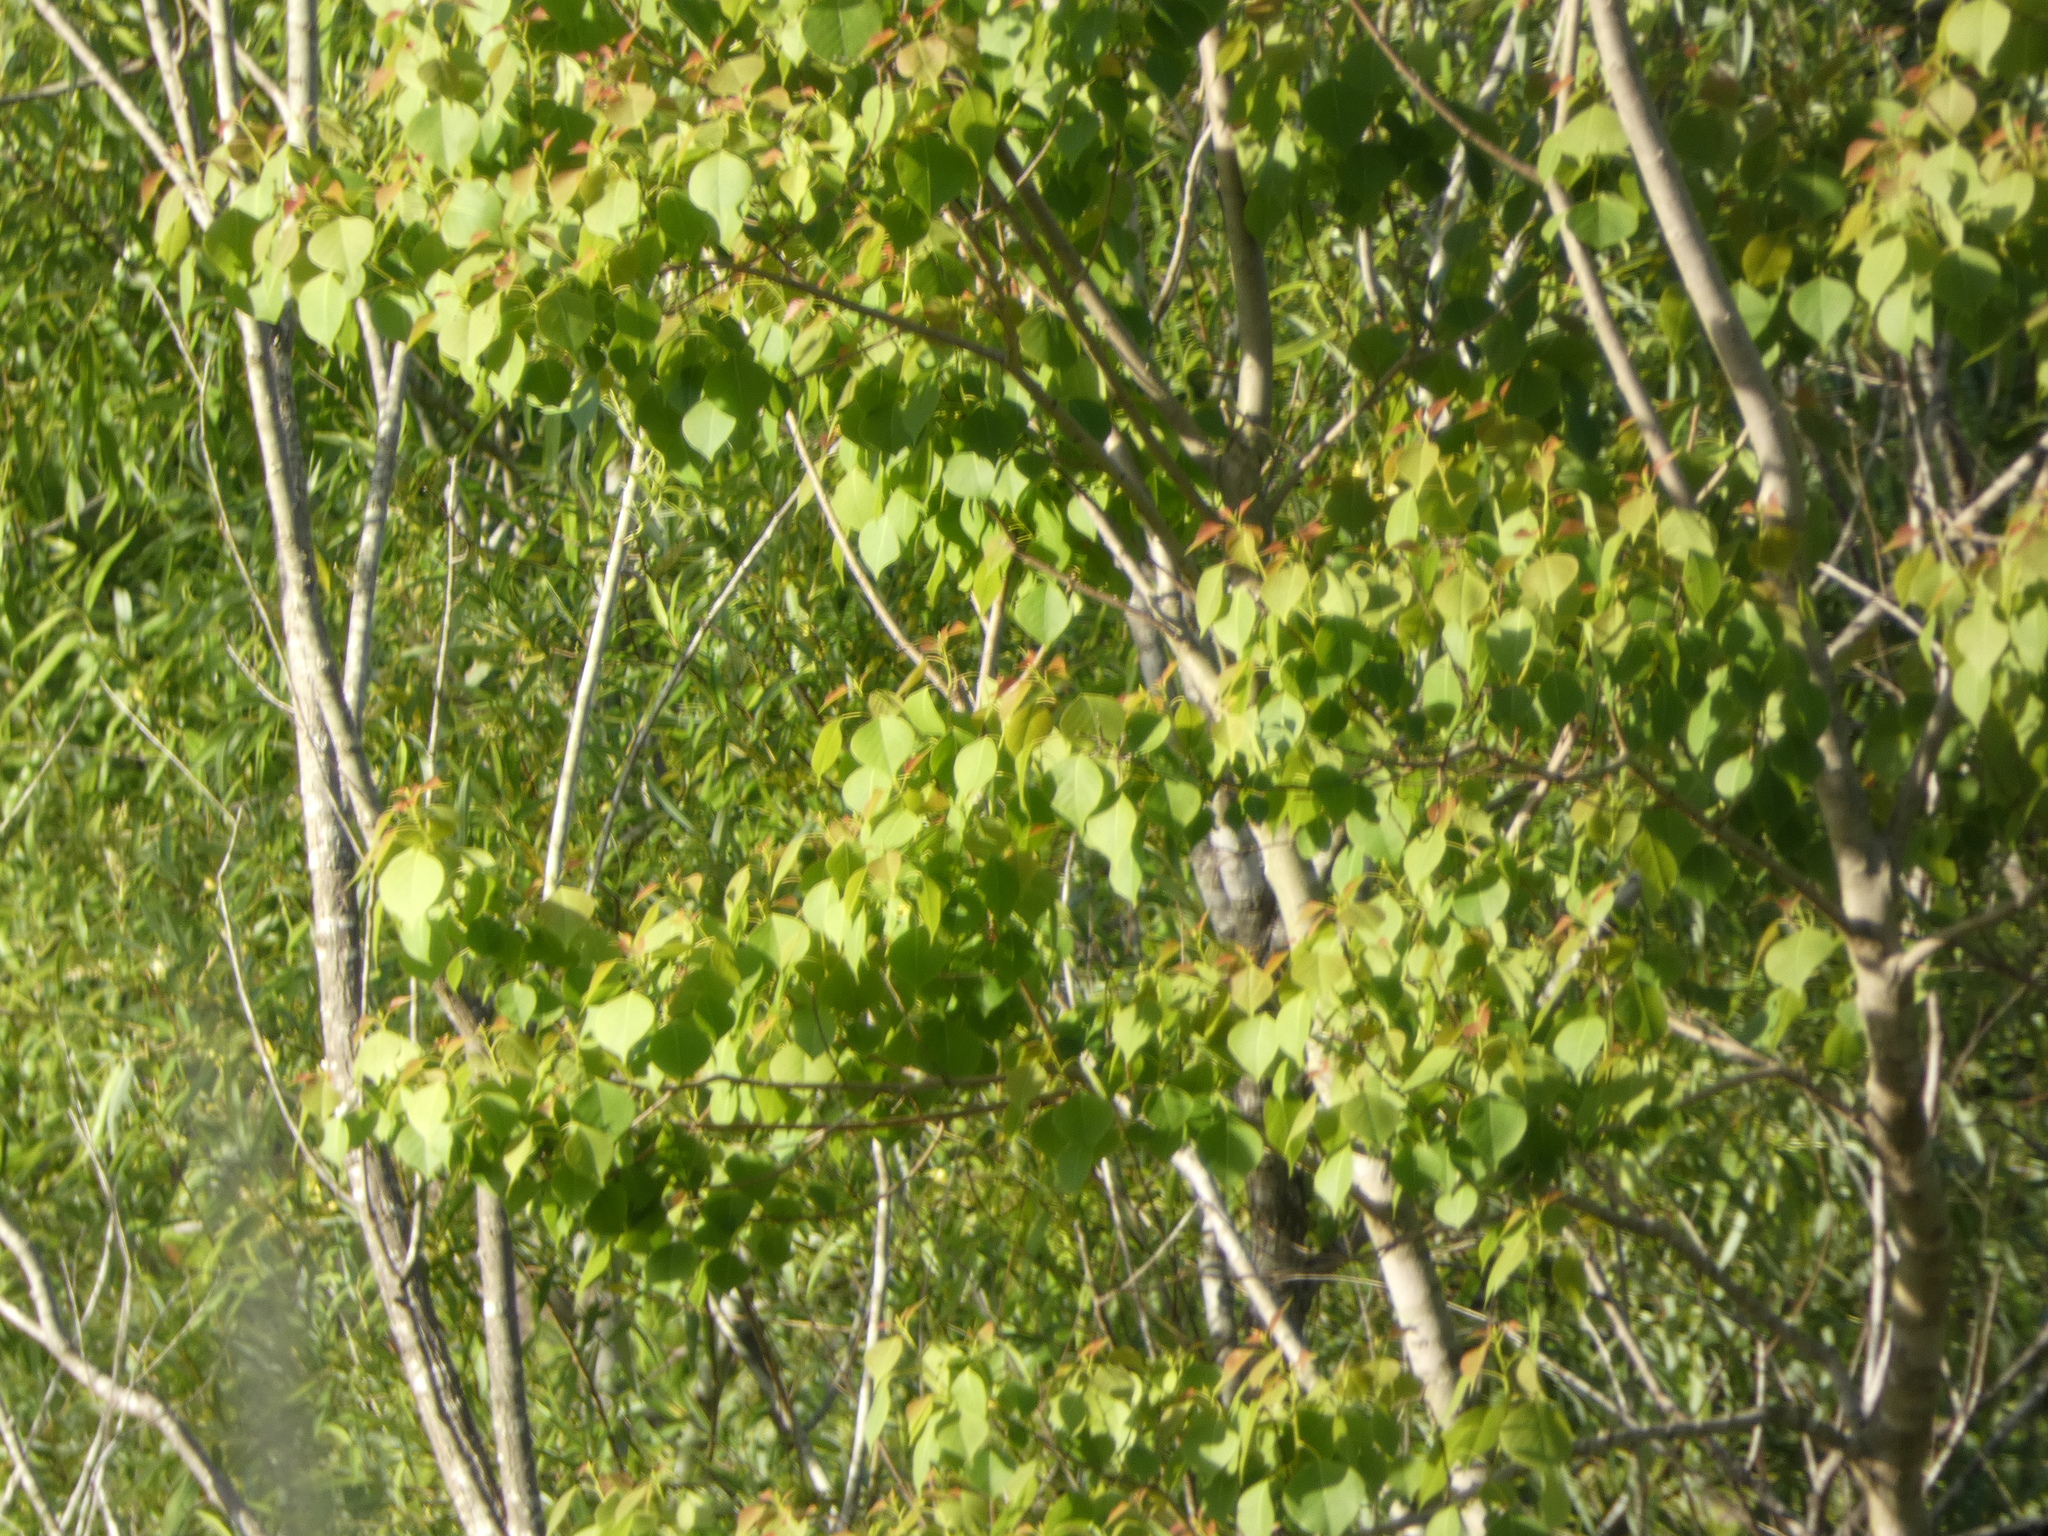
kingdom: Plantae
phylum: Tracheophyta
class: Magnoliopsida
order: Malpighiales
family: Euphorbiaceae
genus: Triadica
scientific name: Triadica sebifera
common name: Chinese tallow
